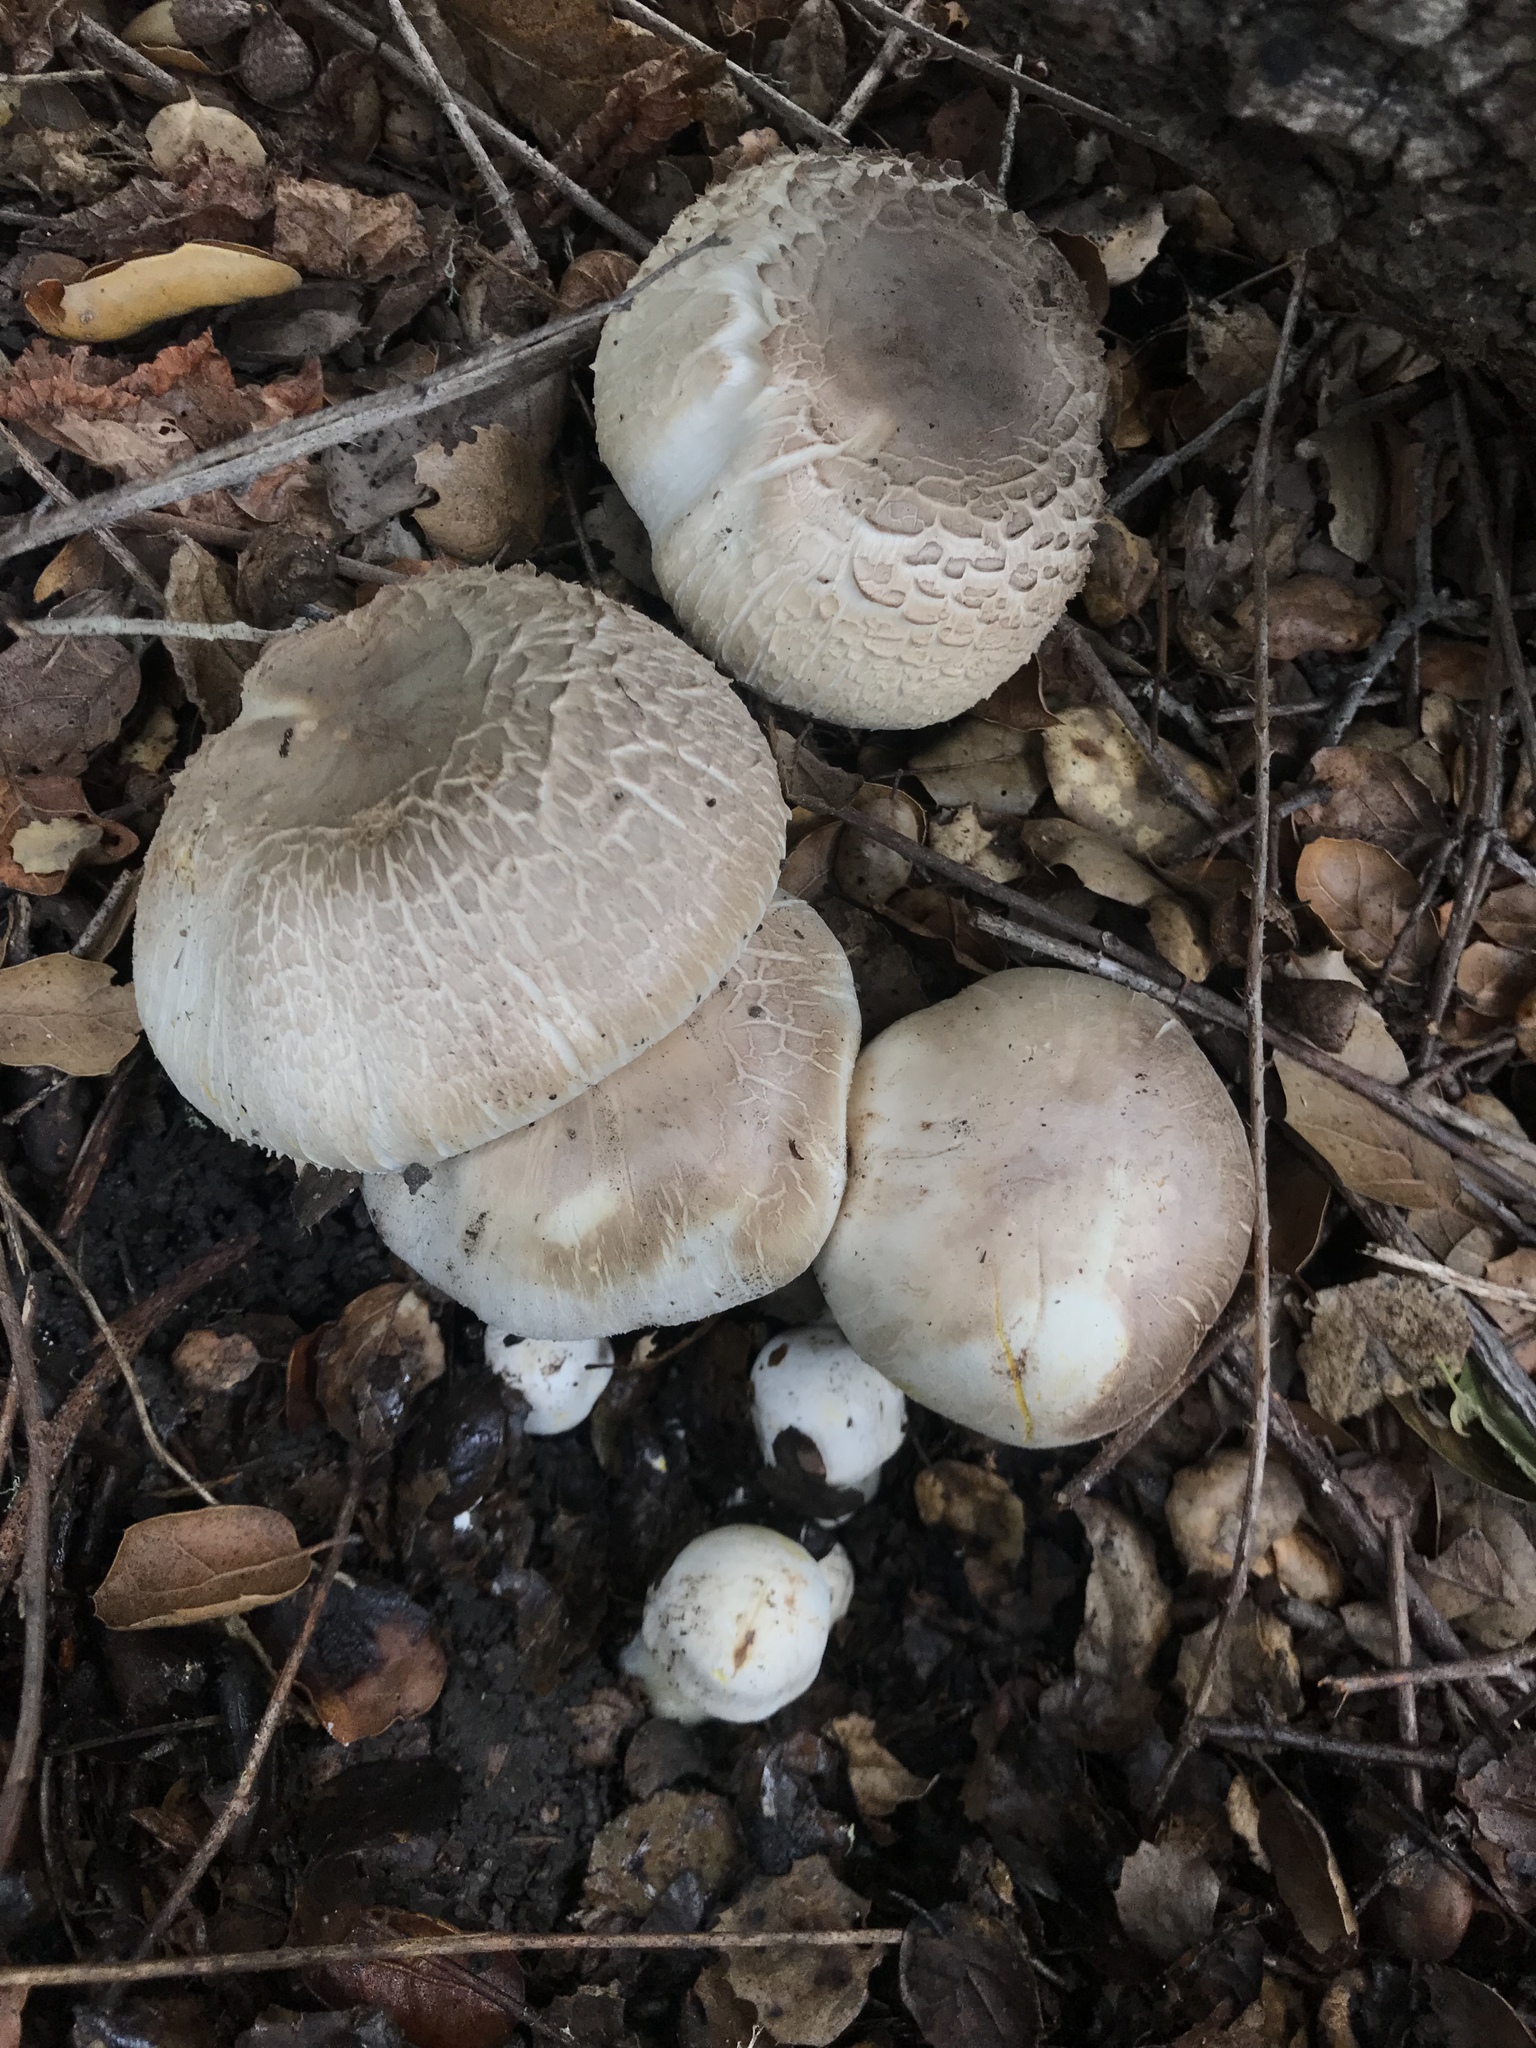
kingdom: Fungi
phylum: Basidiomycota
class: Agaricomycetes
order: Agaricales
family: Agaricaceae
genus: Agaricus
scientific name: Agaricus xanthodermus
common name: Yellow stainer
